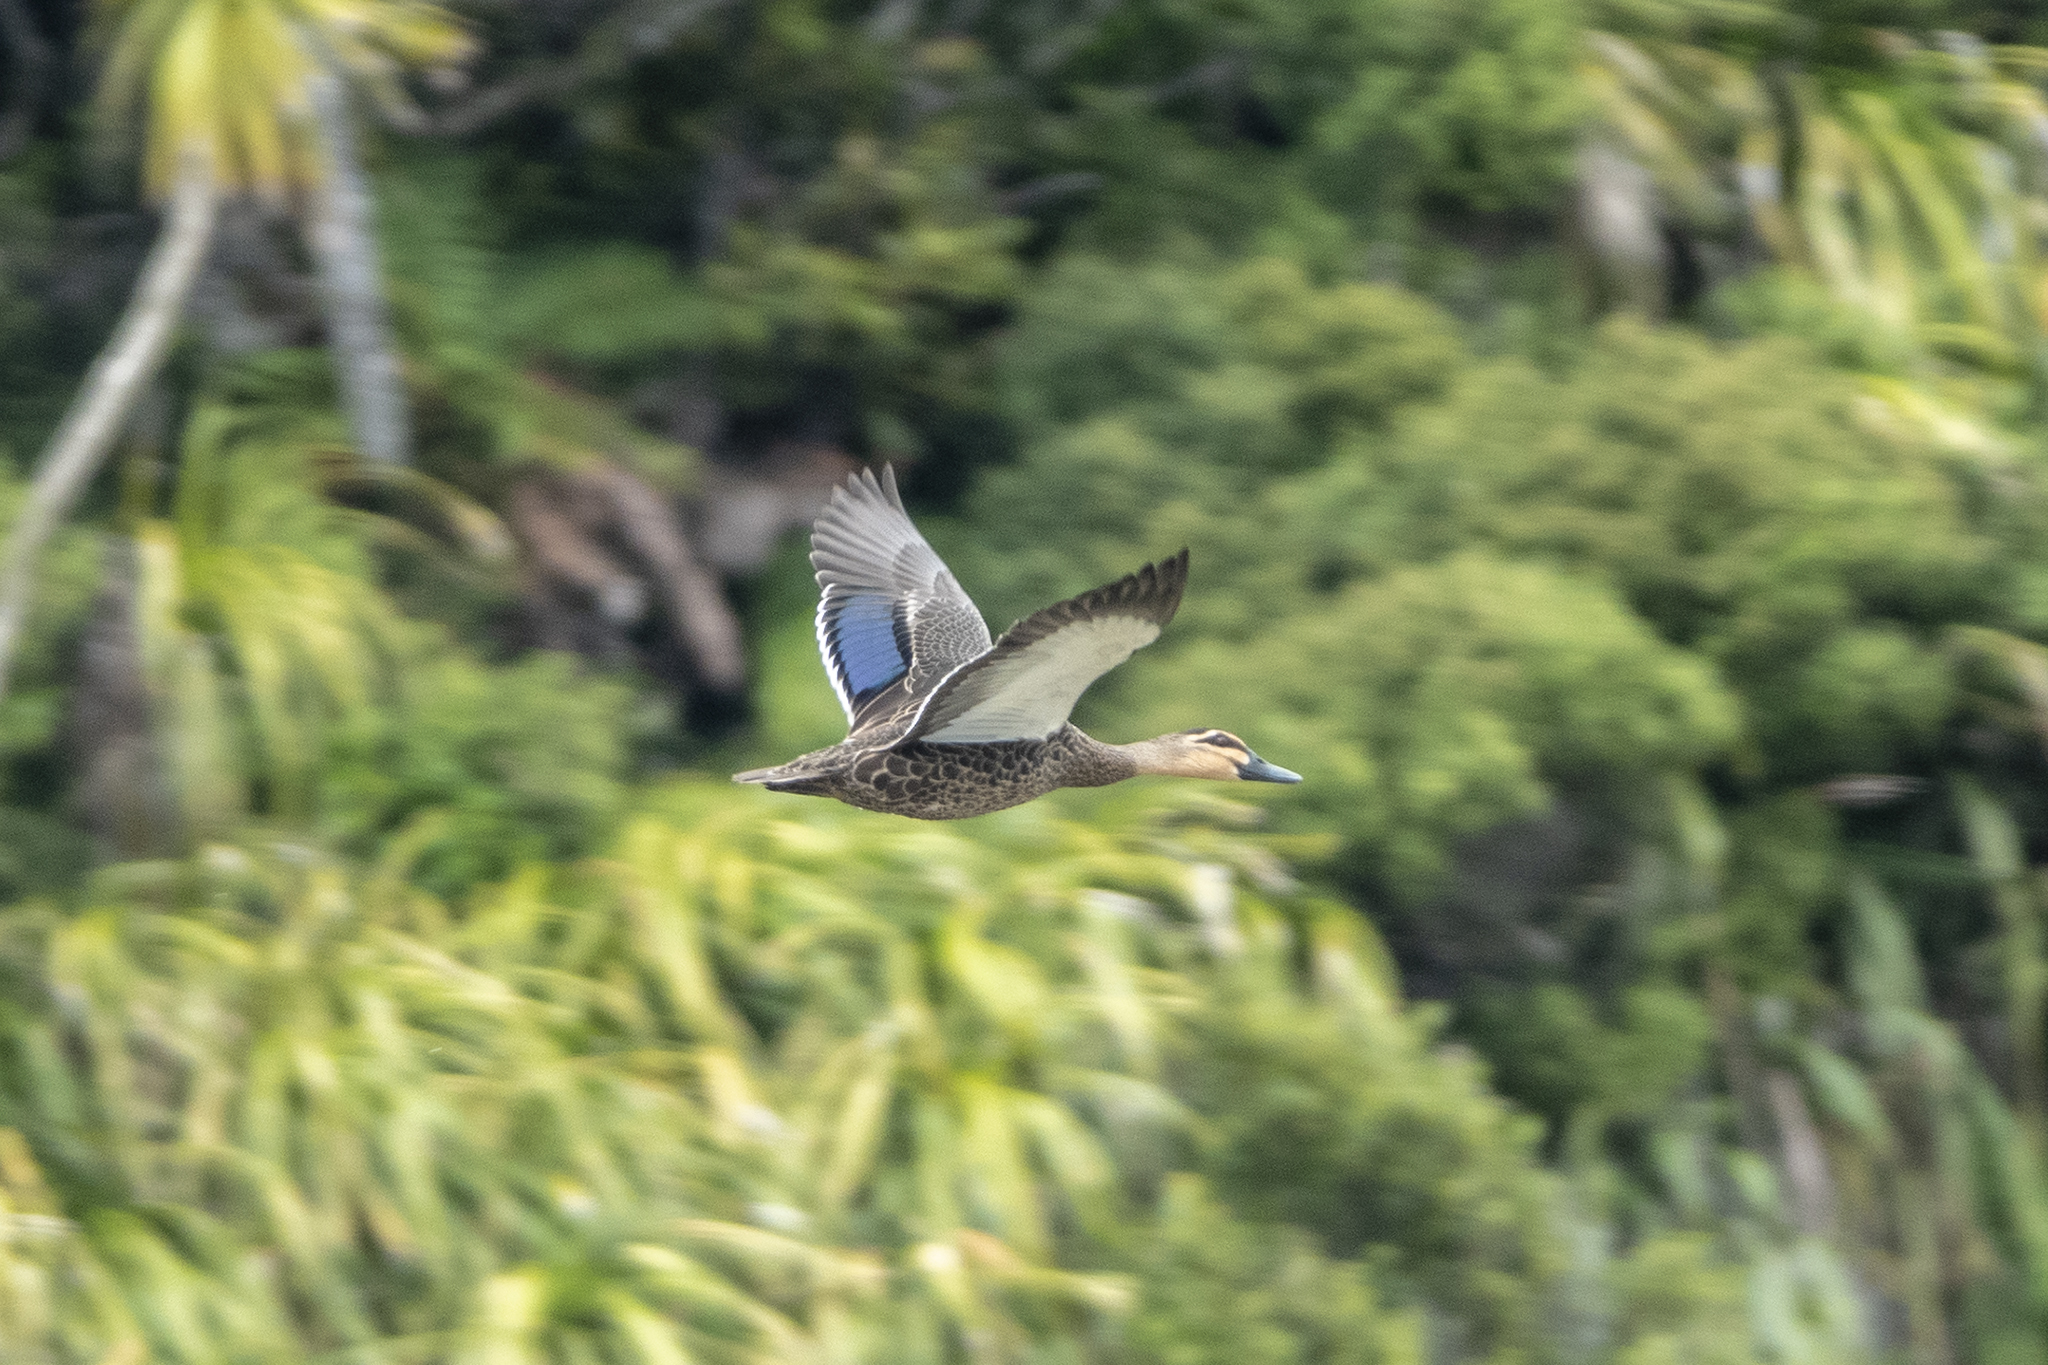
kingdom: Animalia
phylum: Chordata
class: Aves
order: Anseriformes
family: Anatidae
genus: Anas
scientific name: Anas
